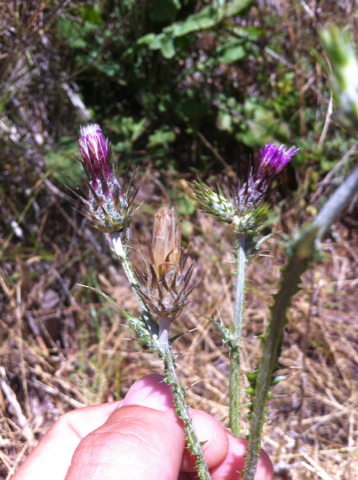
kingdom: Plantae
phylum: Tracheophyta
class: Magnoliopsida
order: Asterales
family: Asteraceae
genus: Carduus
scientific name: Carduus pycnocephalus
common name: Plymouth thistle
